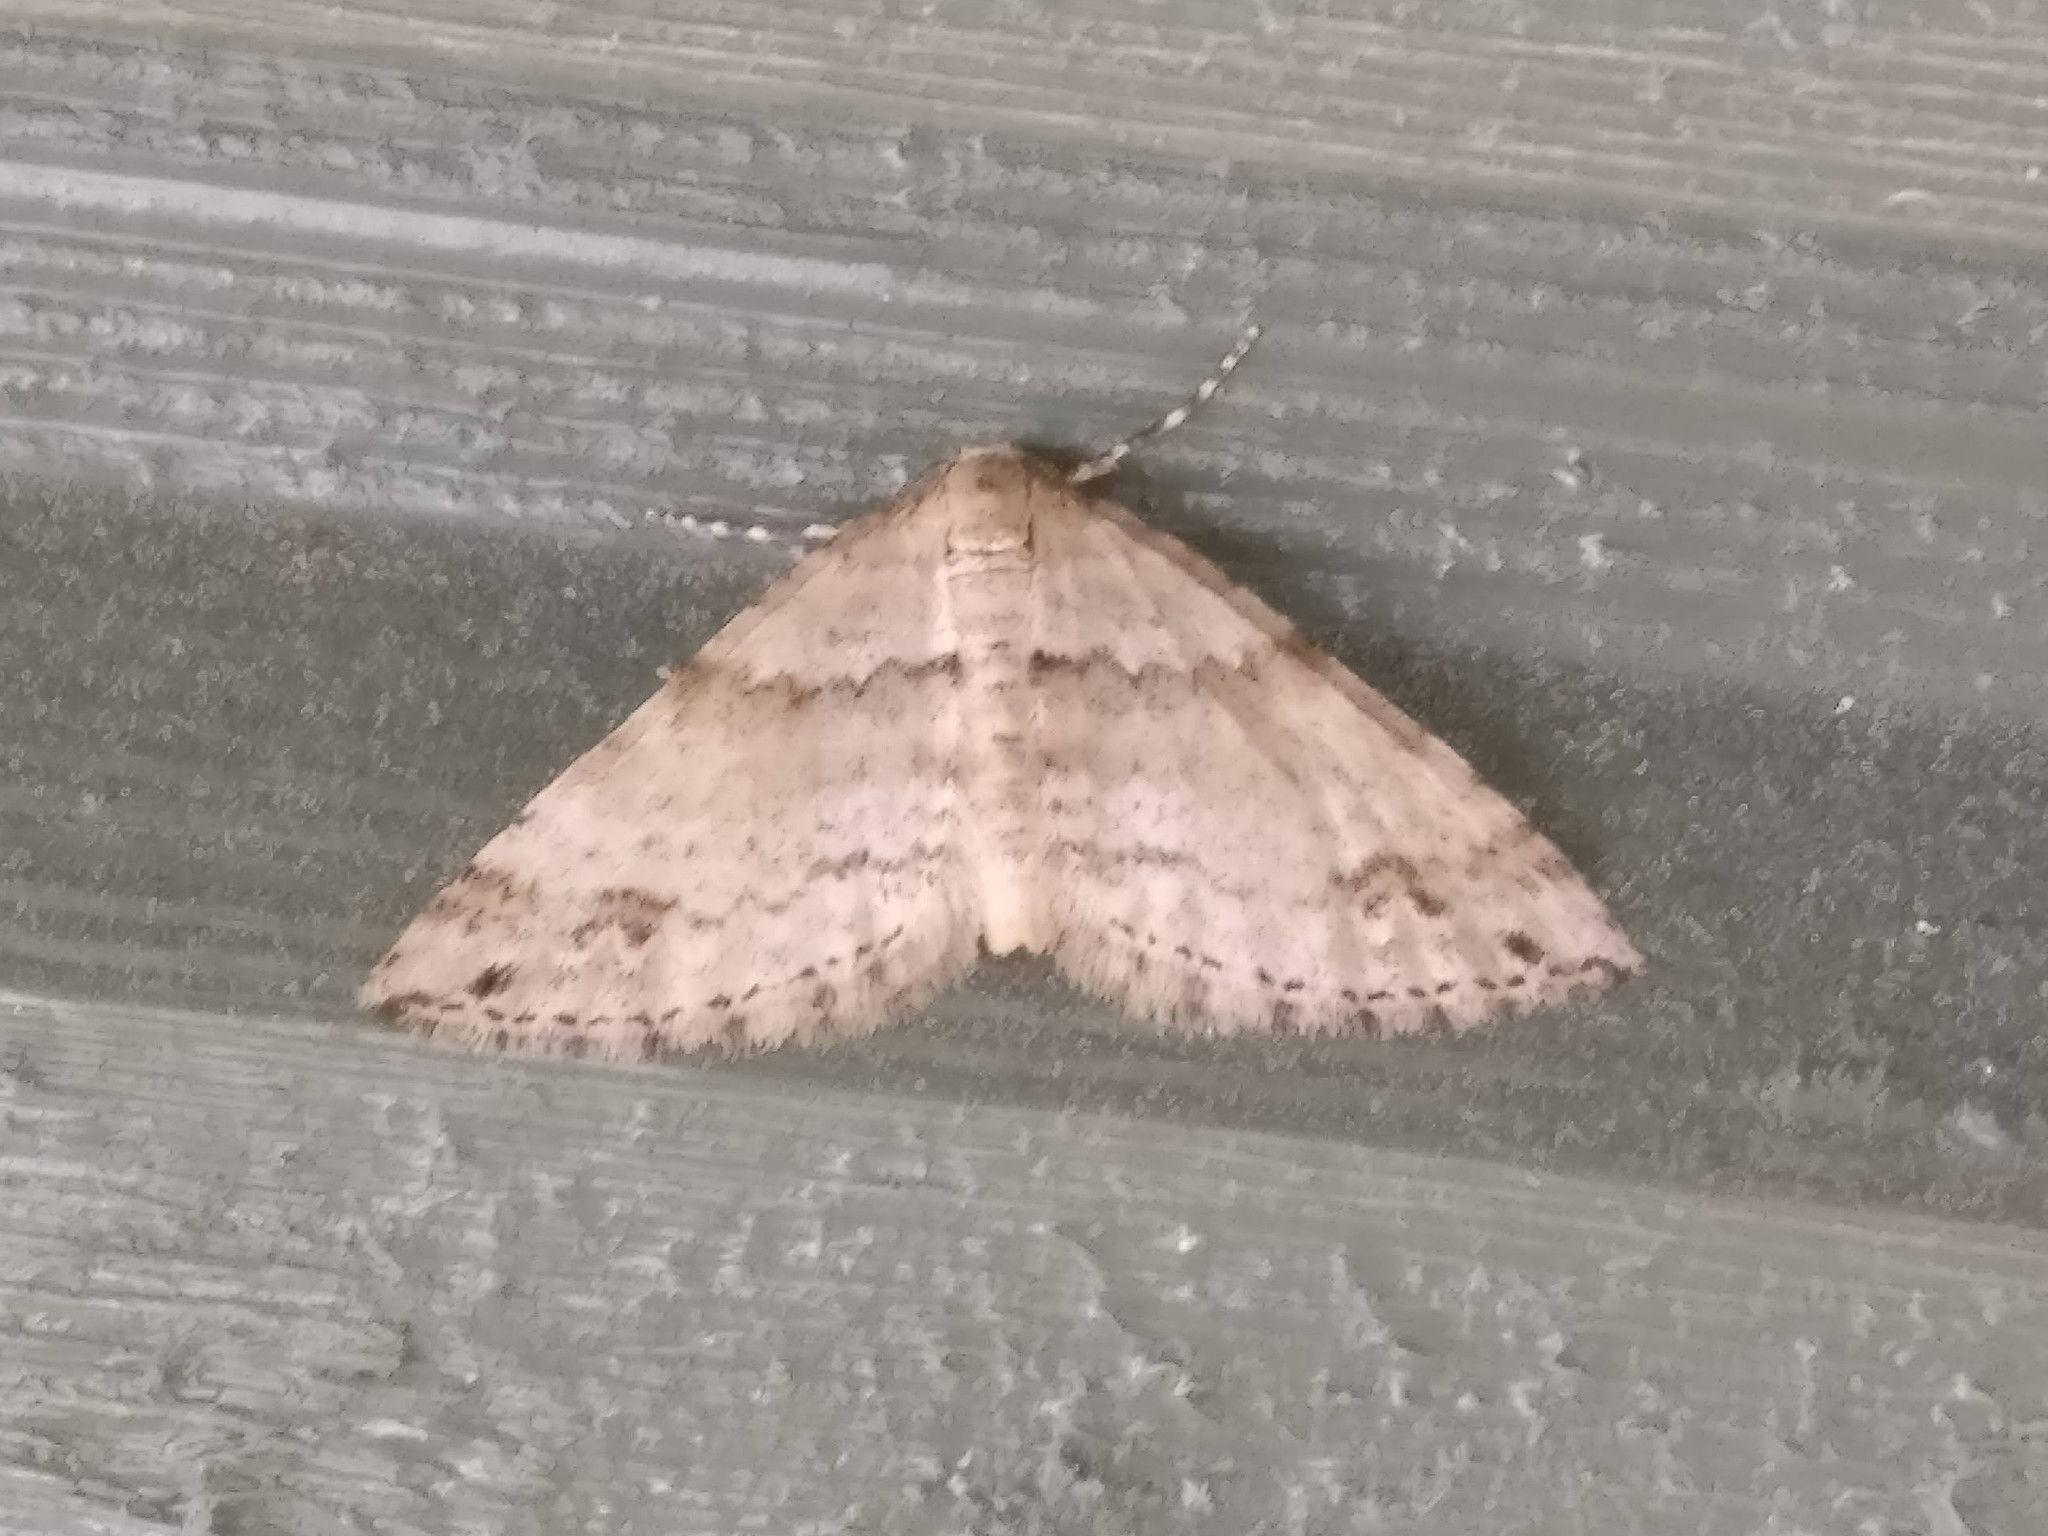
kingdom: Animalia
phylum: Arthropoda
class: Insecta
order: Lepidoptera
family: Geometridae
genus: Perizoma
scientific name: Perizoma didymata
